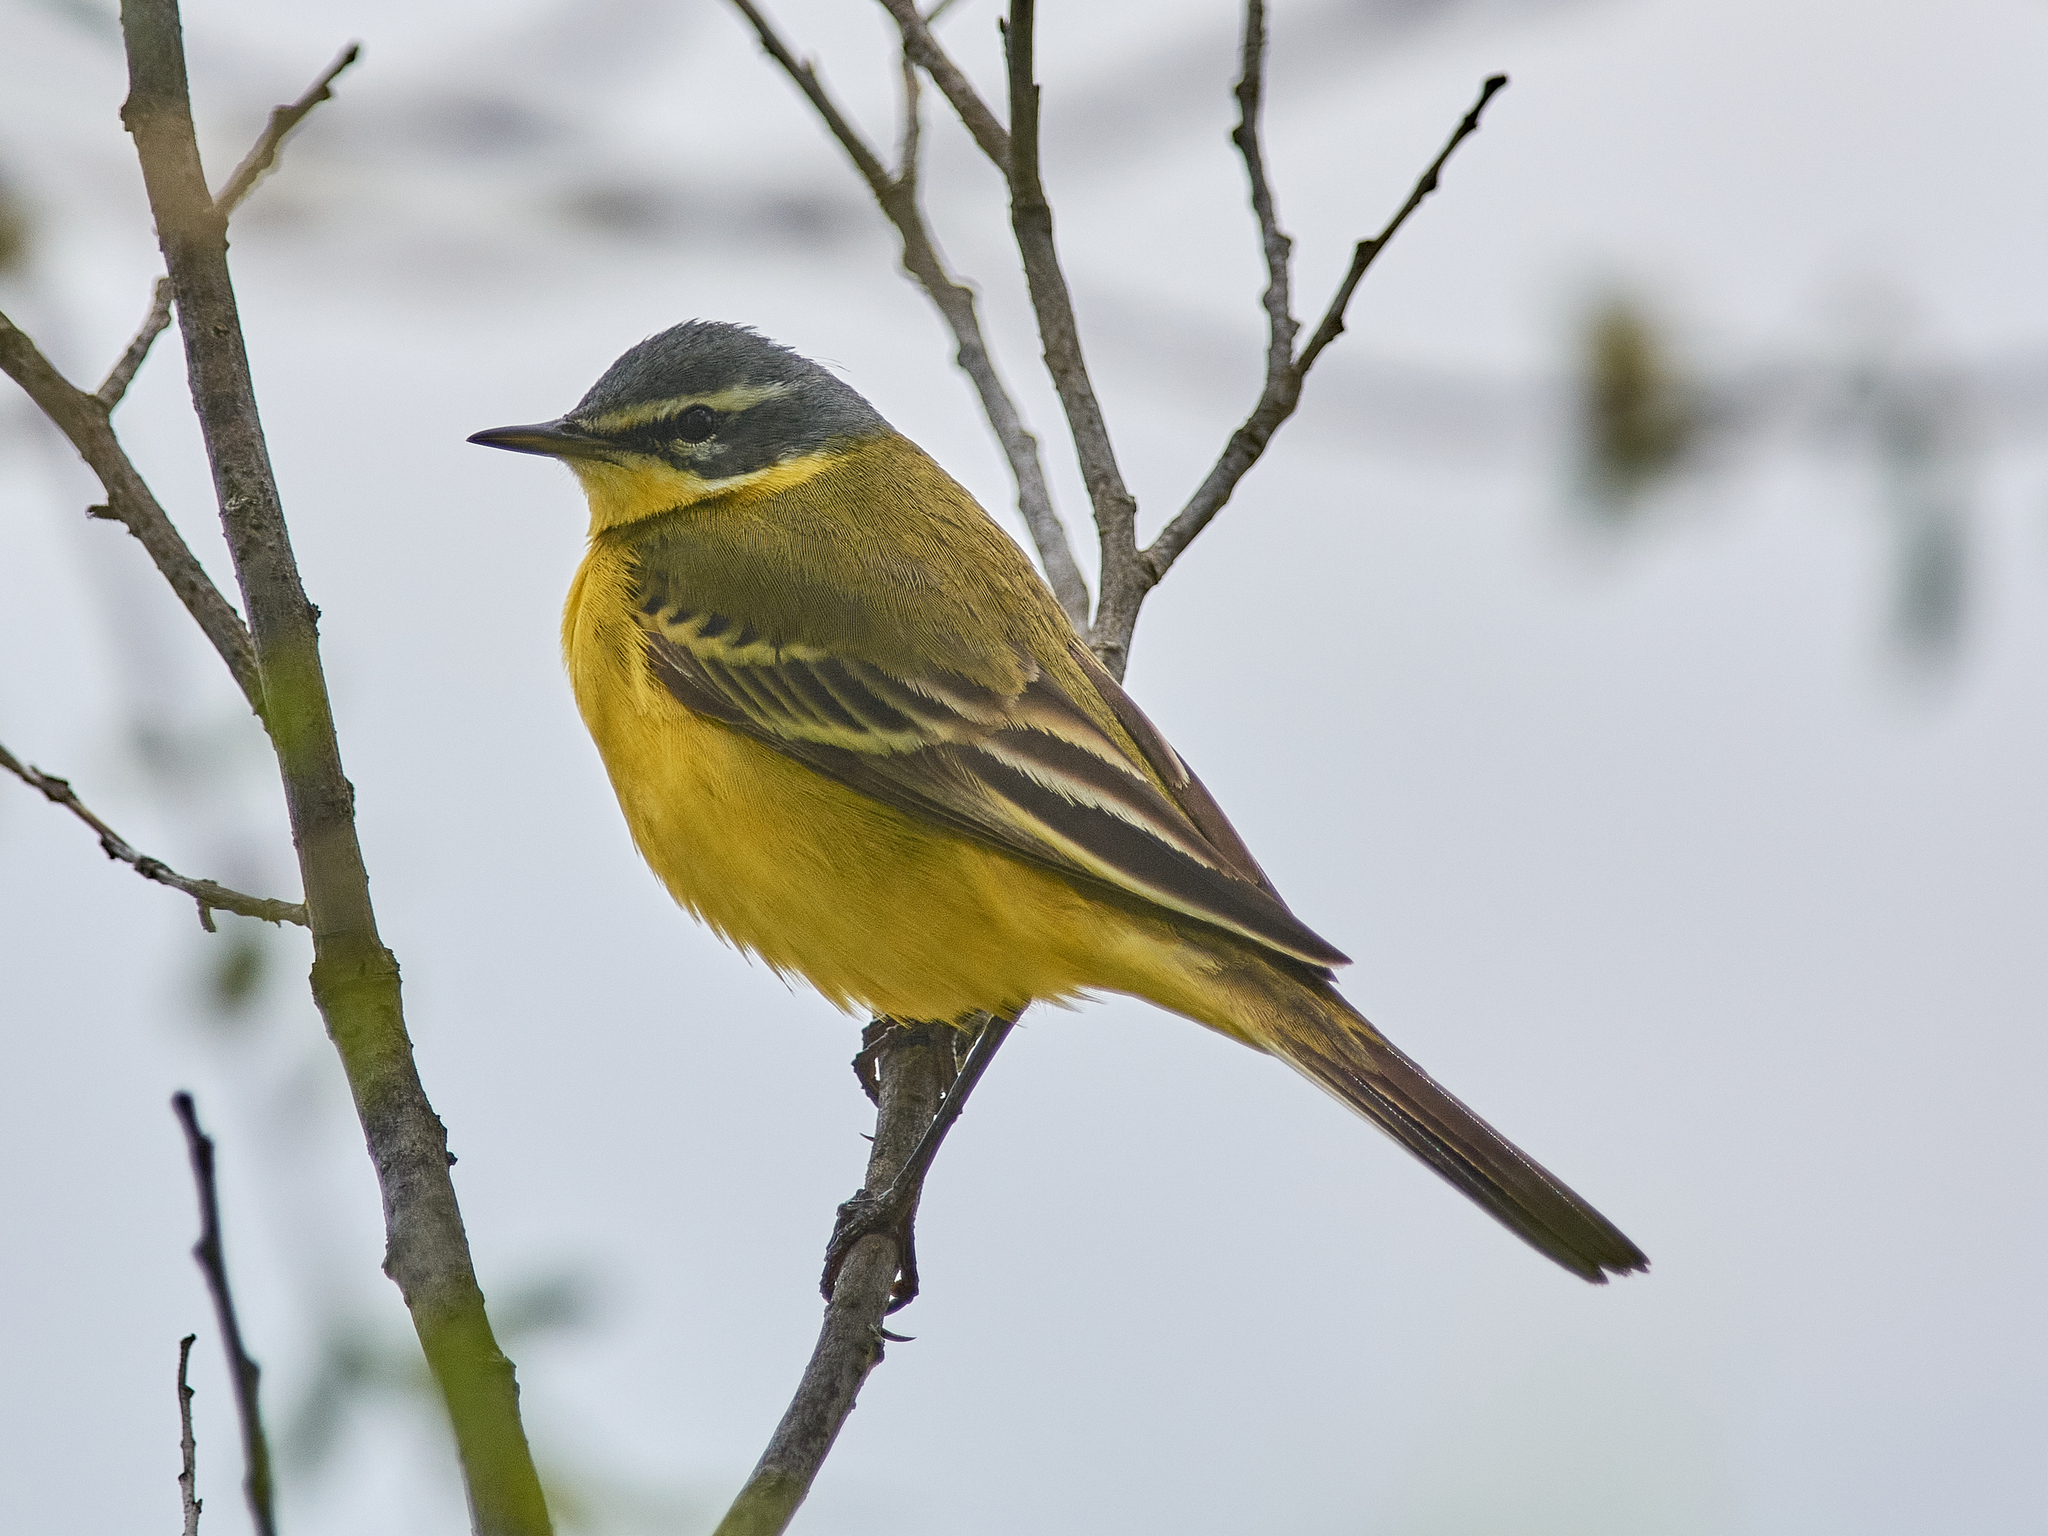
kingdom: Animalia
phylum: Chordata
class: Aves
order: Passeriformes
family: Motacillidae
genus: Motacilla
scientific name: Motacilla flava
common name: Western yellow wagtail
